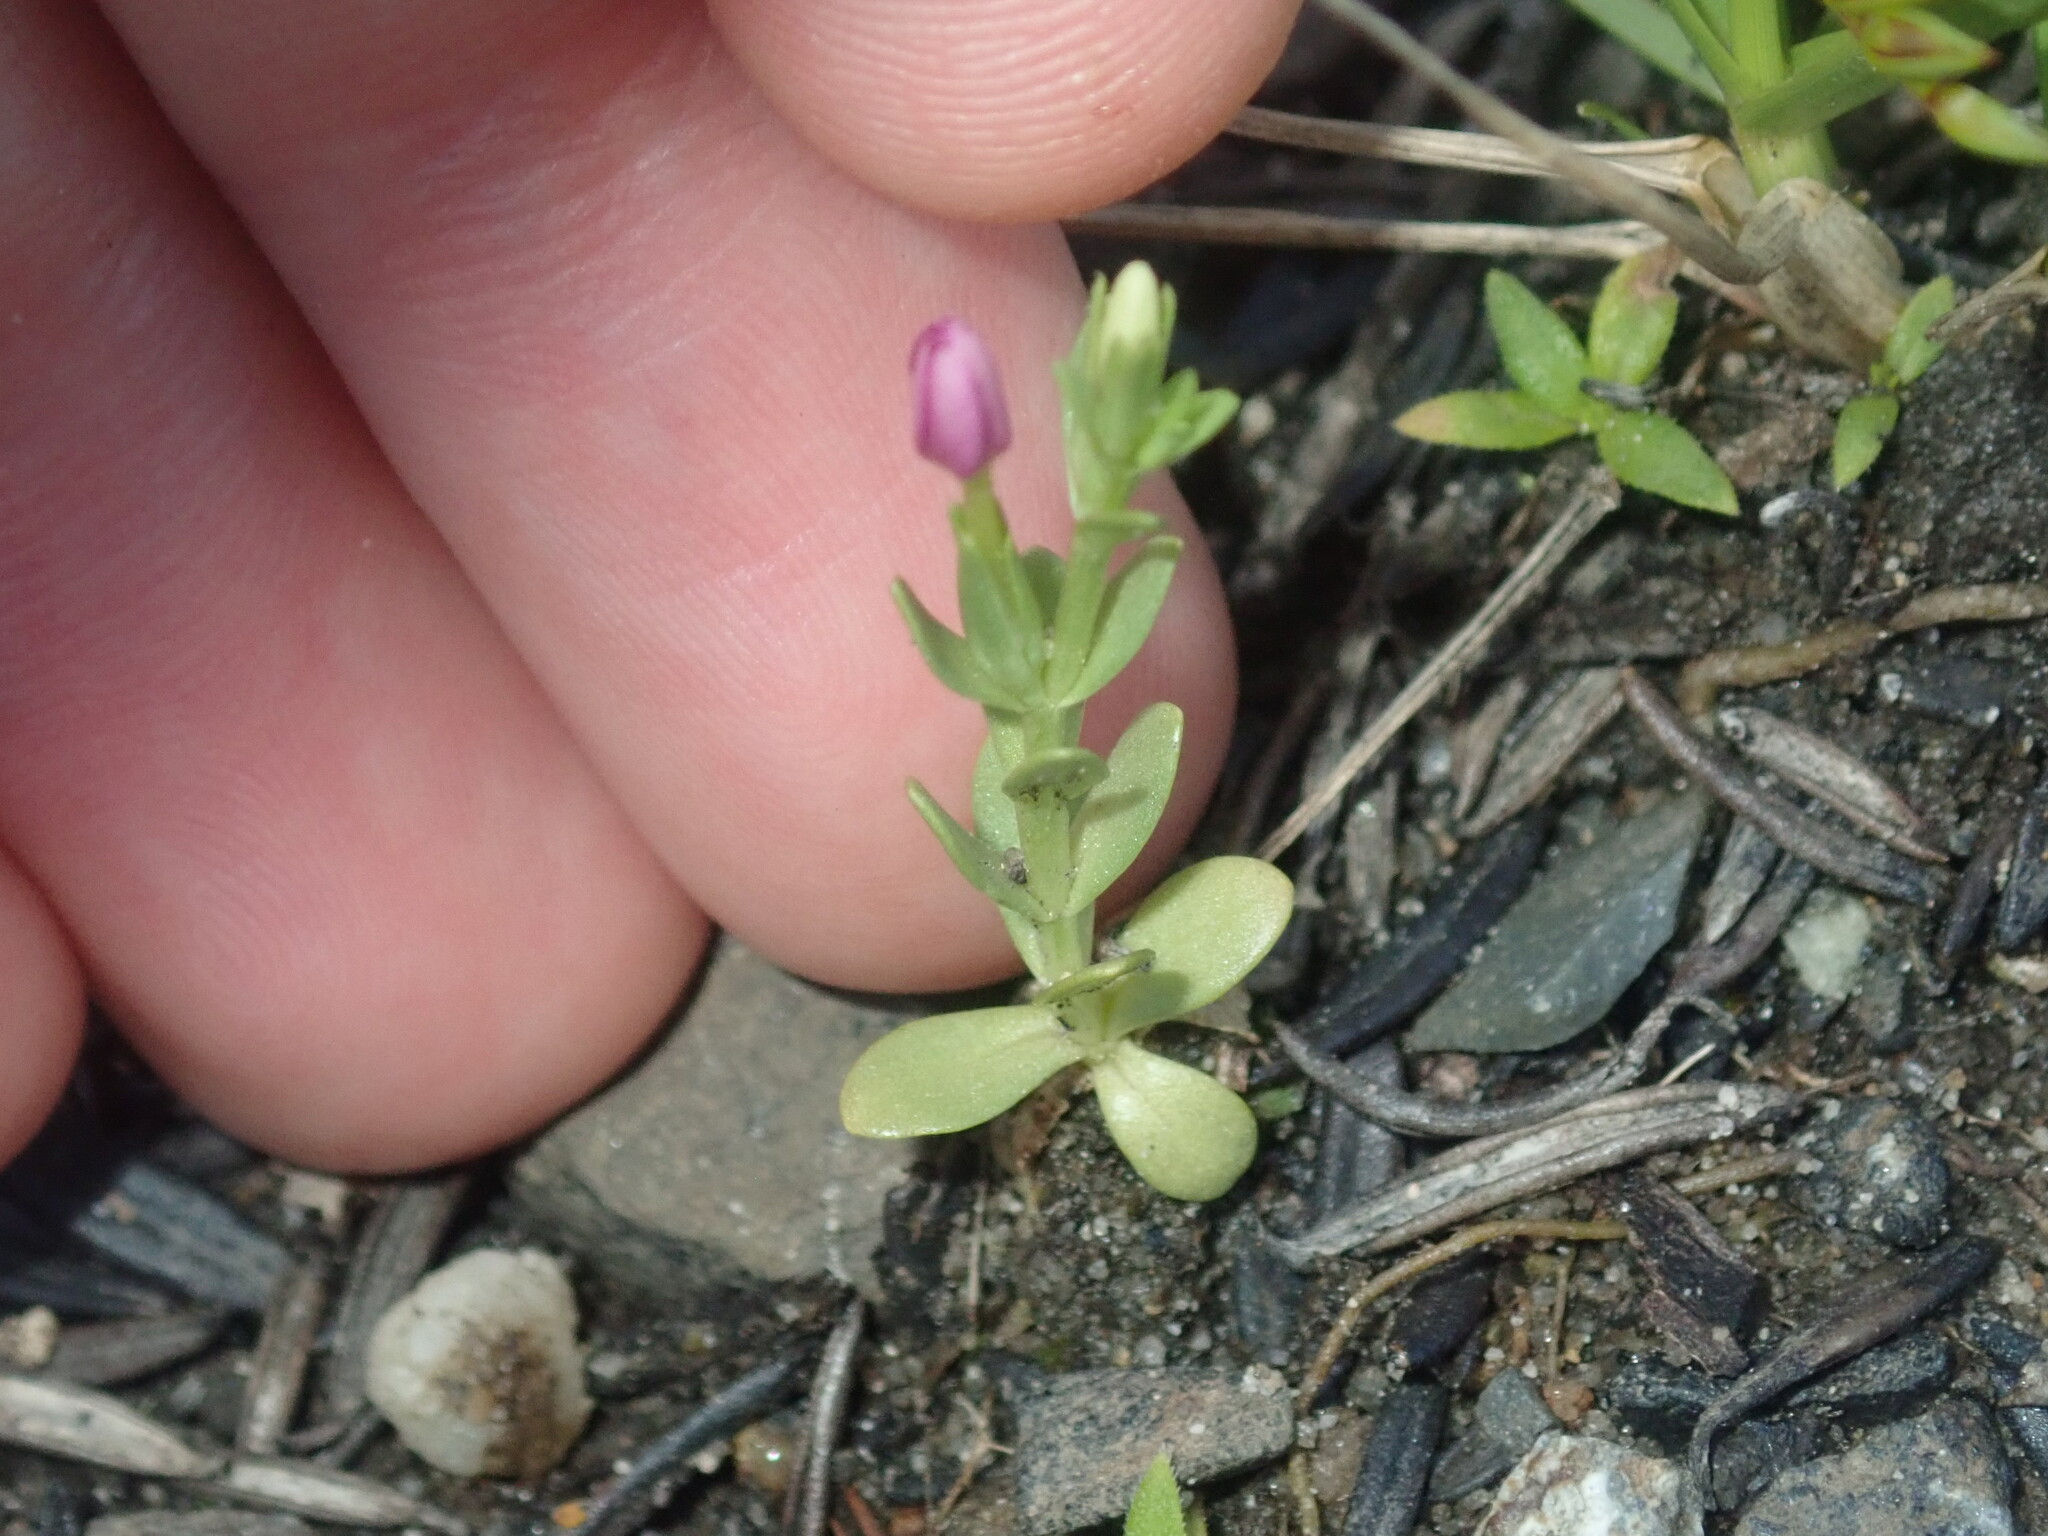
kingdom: Plantae
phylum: Tracheophyta
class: Magnoliopsida
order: Gentianales
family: Gentianaceae
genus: Centaurium
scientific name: Centaurium tenuiflorum
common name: Slender centaury
